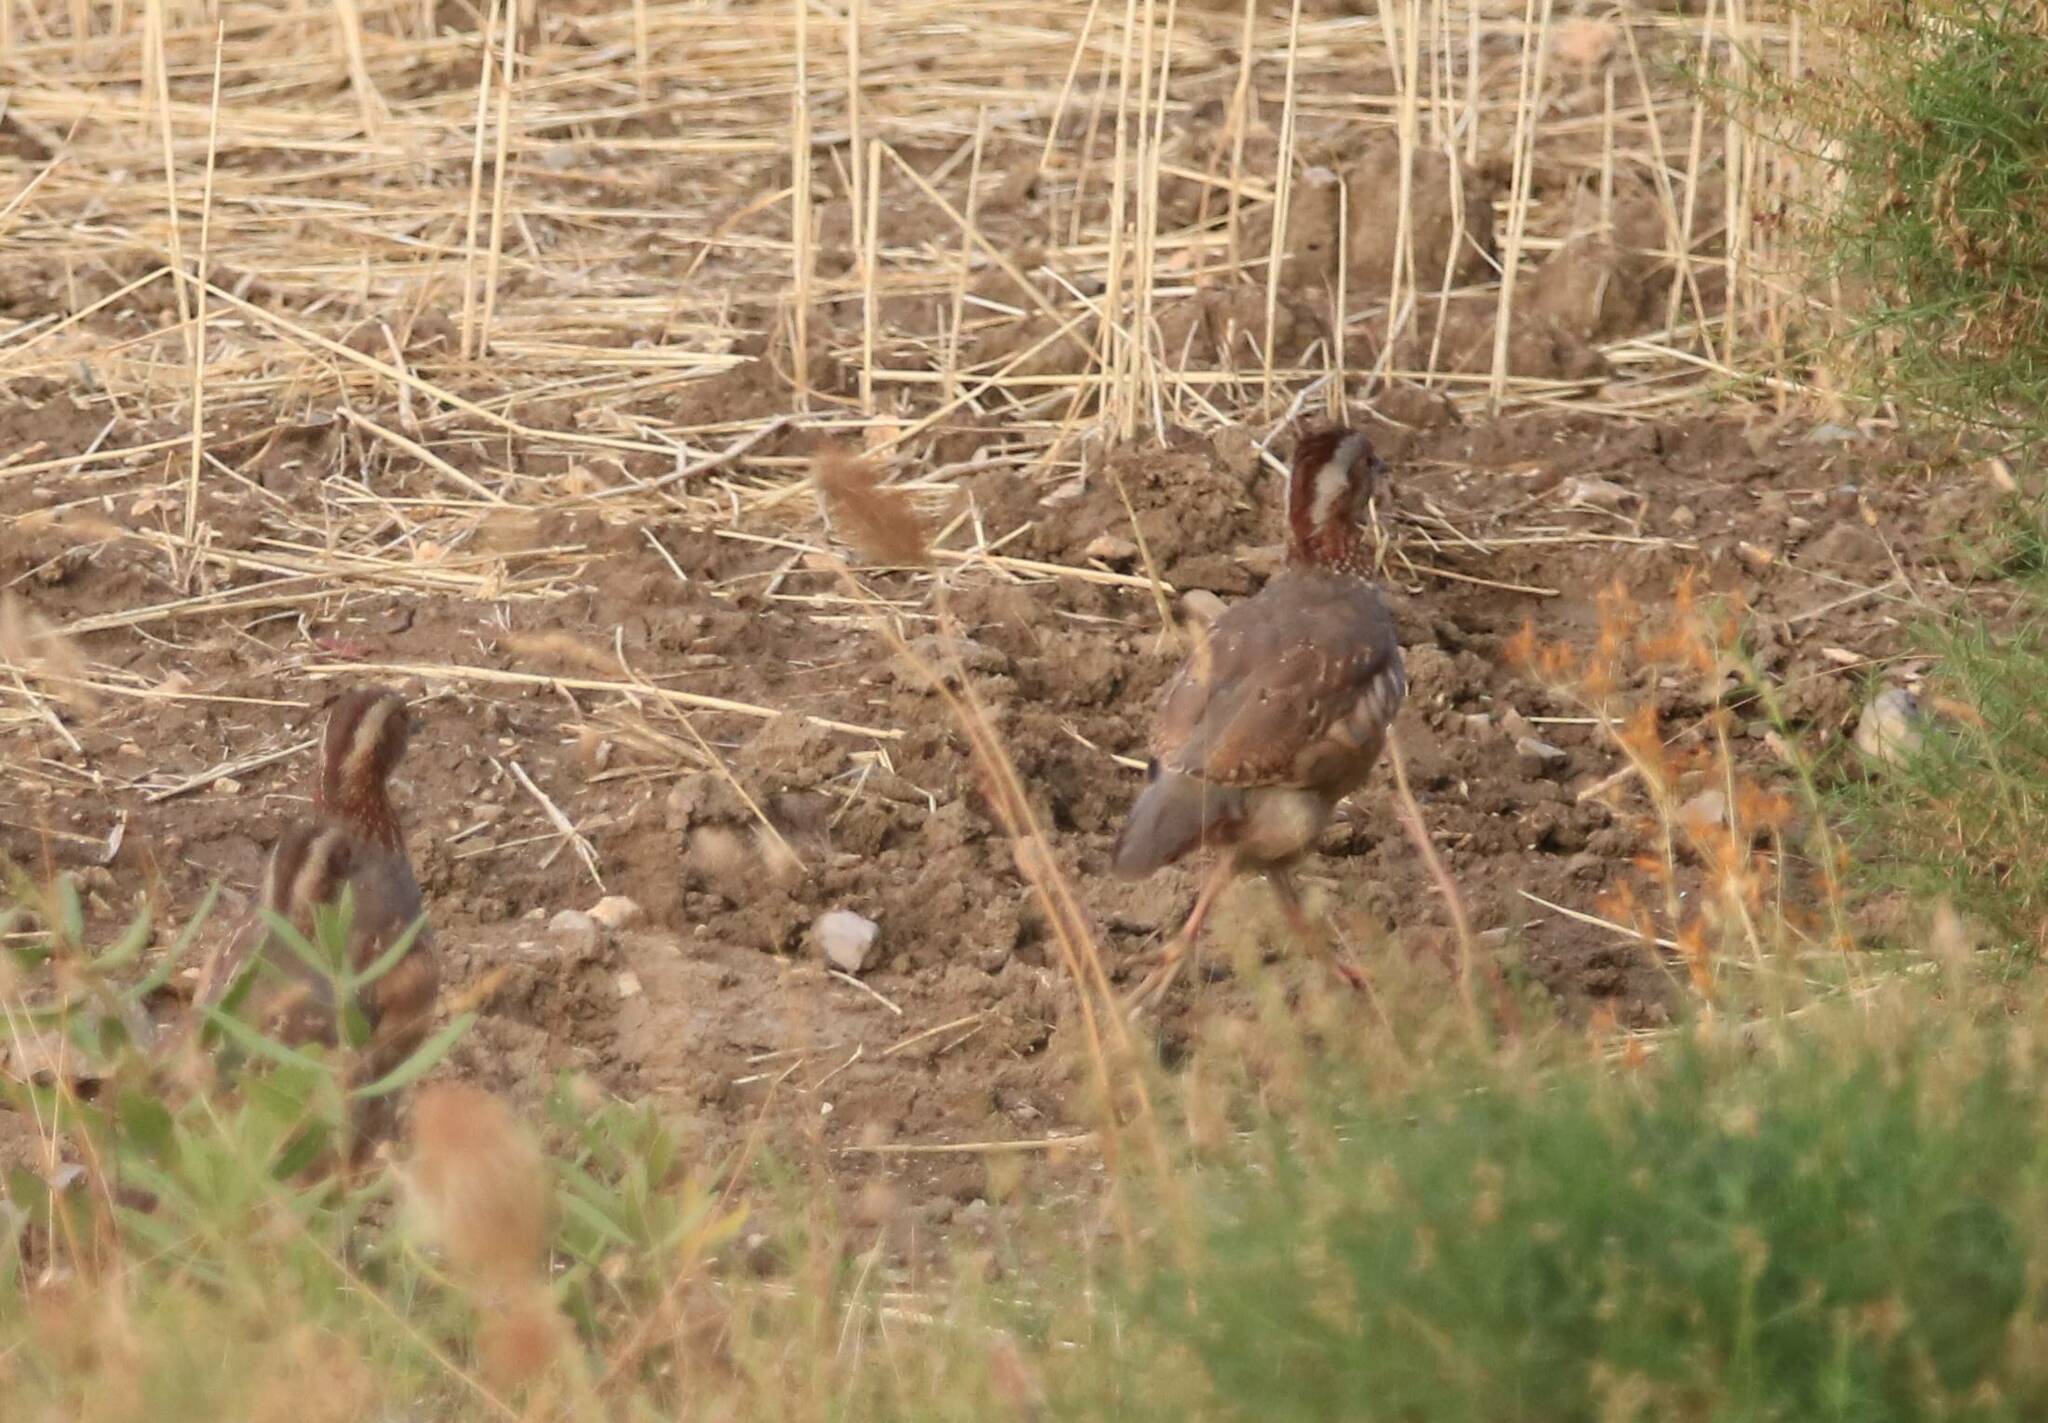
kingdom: Animalia
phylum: Chordata
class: Aves
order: Galliformes
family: Phasianidae
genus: Alectoris
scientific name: Alectoris barbara
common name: Barbary partridge
